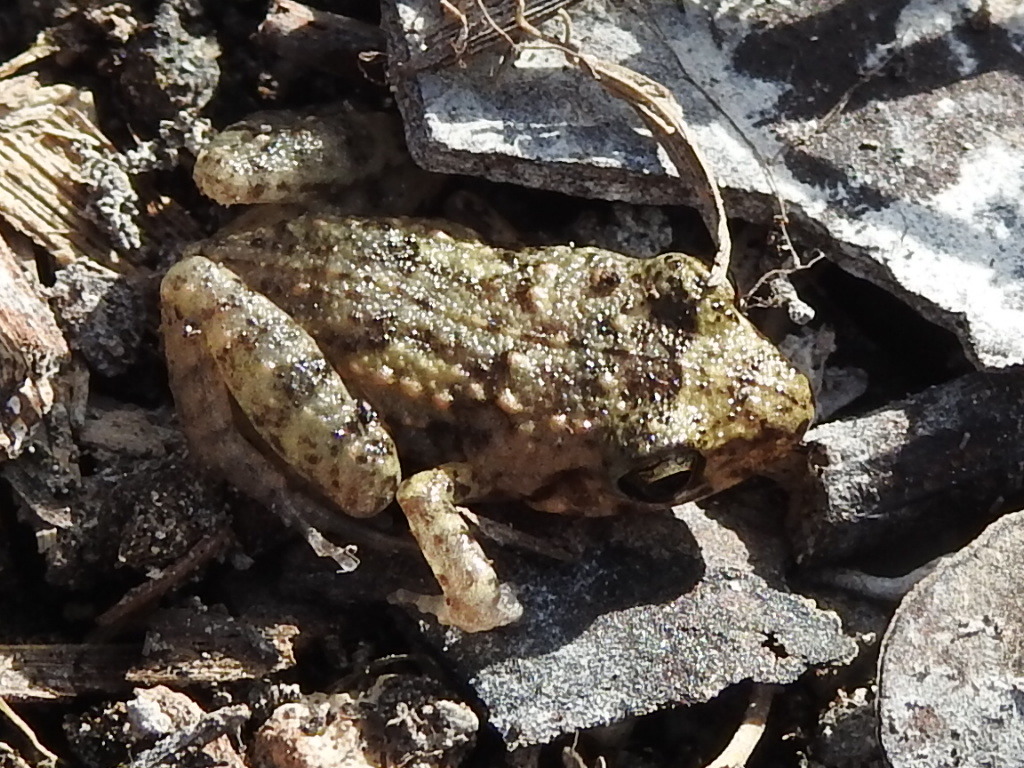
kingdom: Animalia
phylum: Chordata
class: Amphibia
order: Anura
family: Eleutherodactylidae
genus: Eleutherodactylus
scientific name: Eleutherodactylus planirostris
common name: Greenhouse frog
